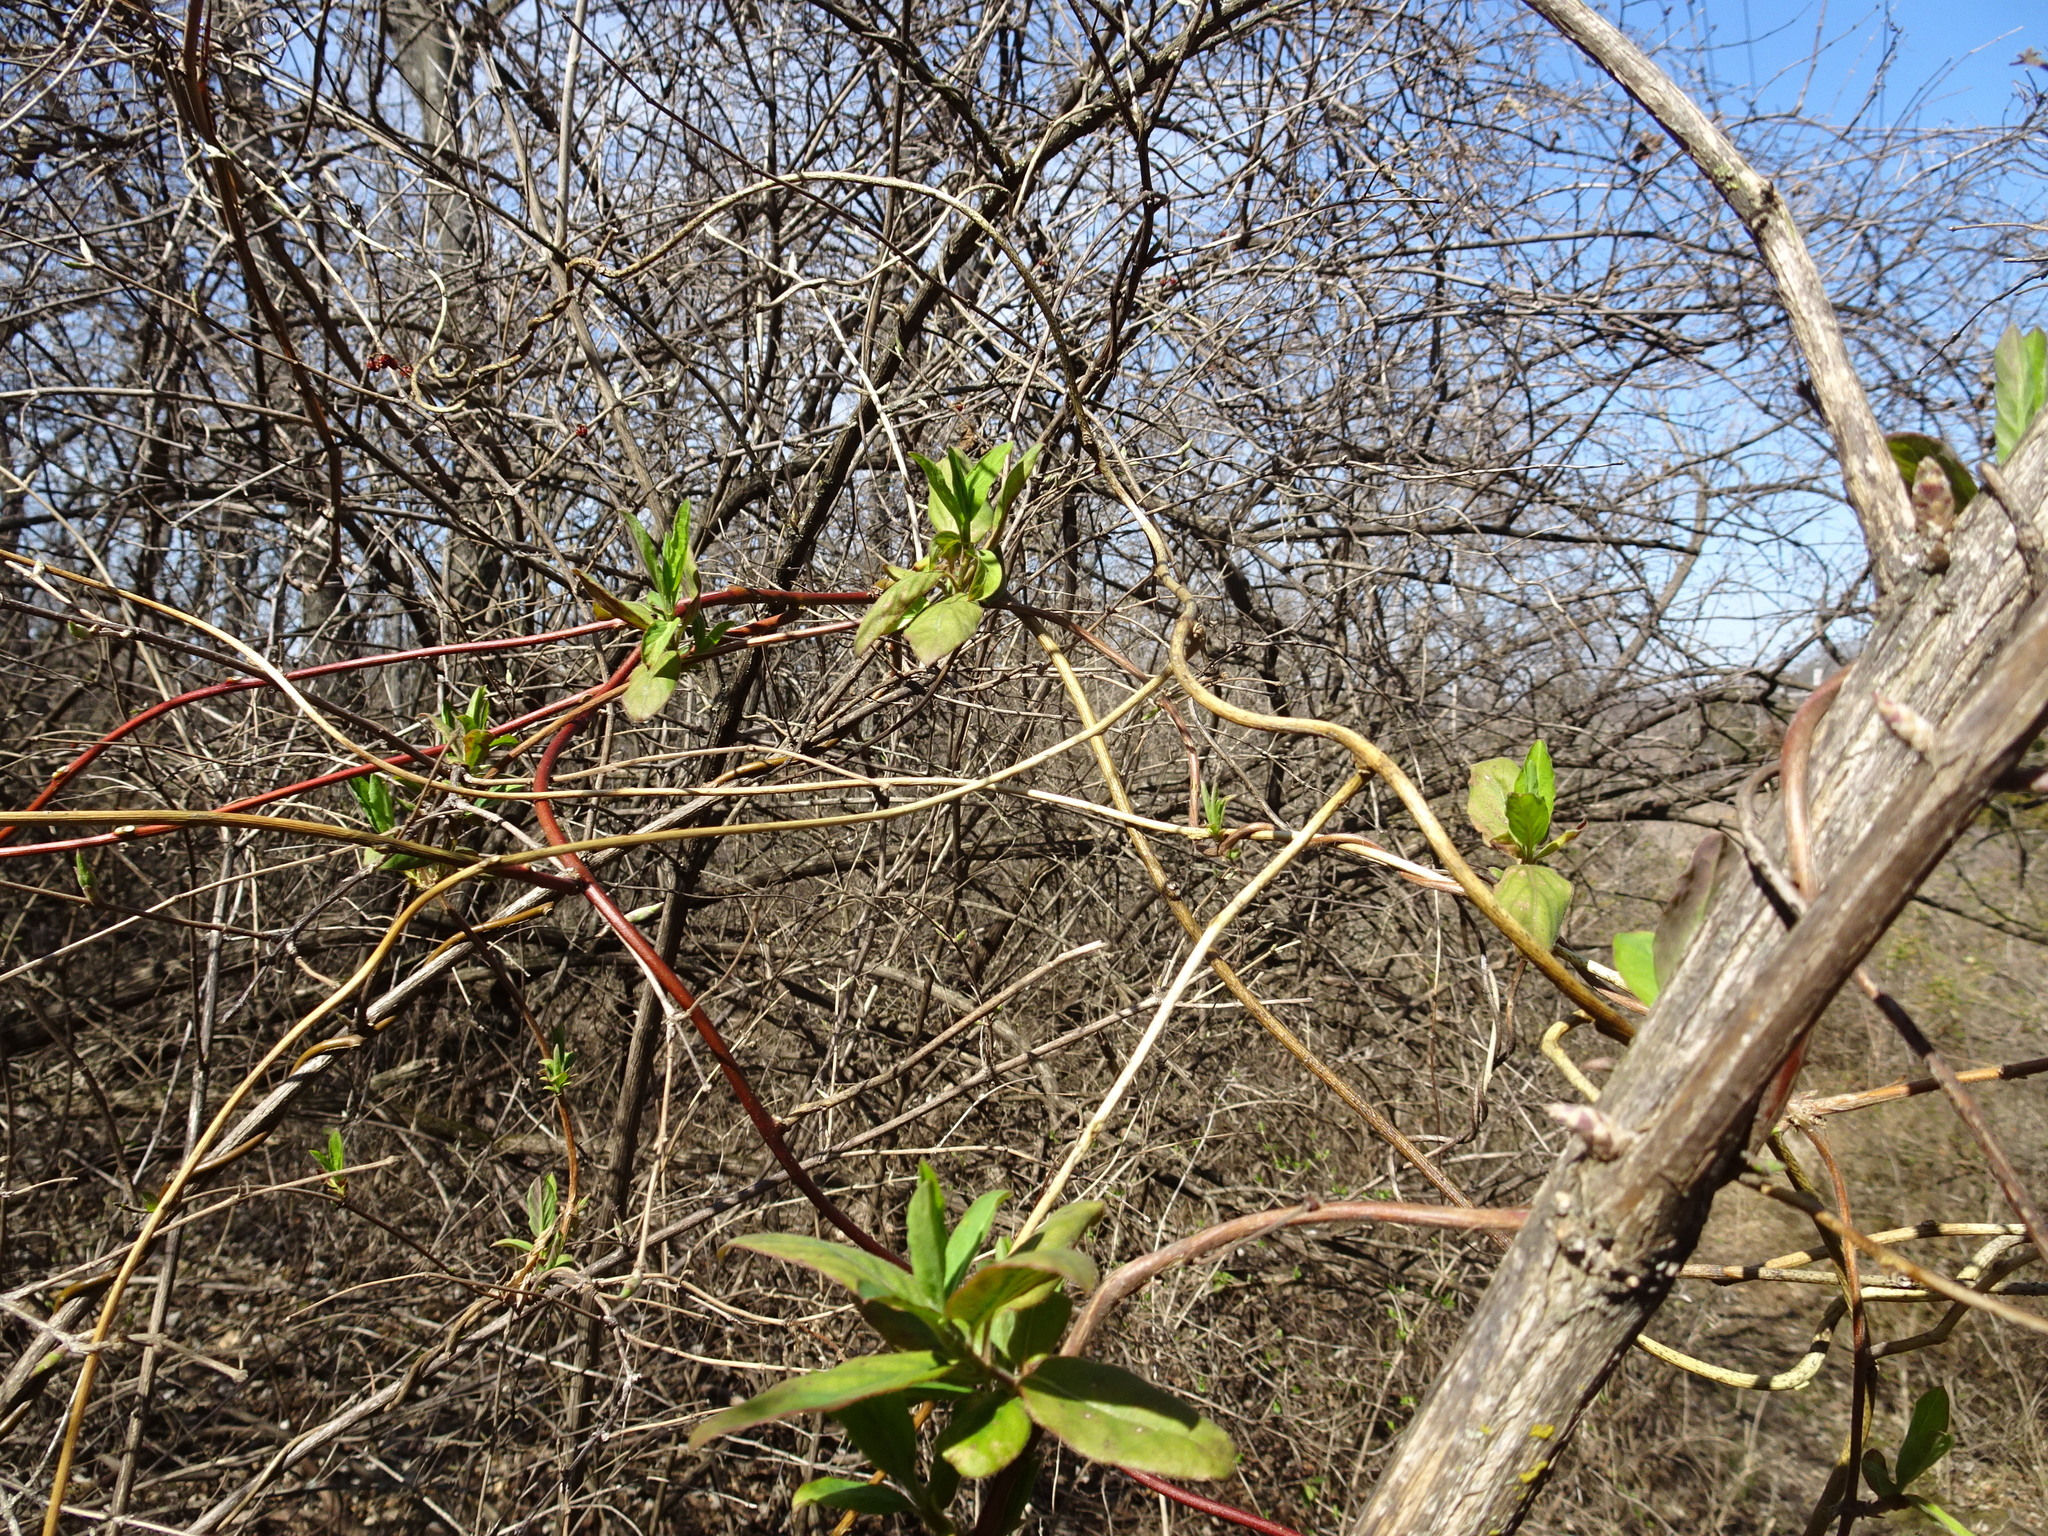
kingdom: Plantae
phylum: Tracheophyta
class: Magnoliopsida
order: Dipsacales
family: Caprifoliaceae
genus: Lonicera
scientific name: Lonicera japonica
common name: Japanese honeysuckle
